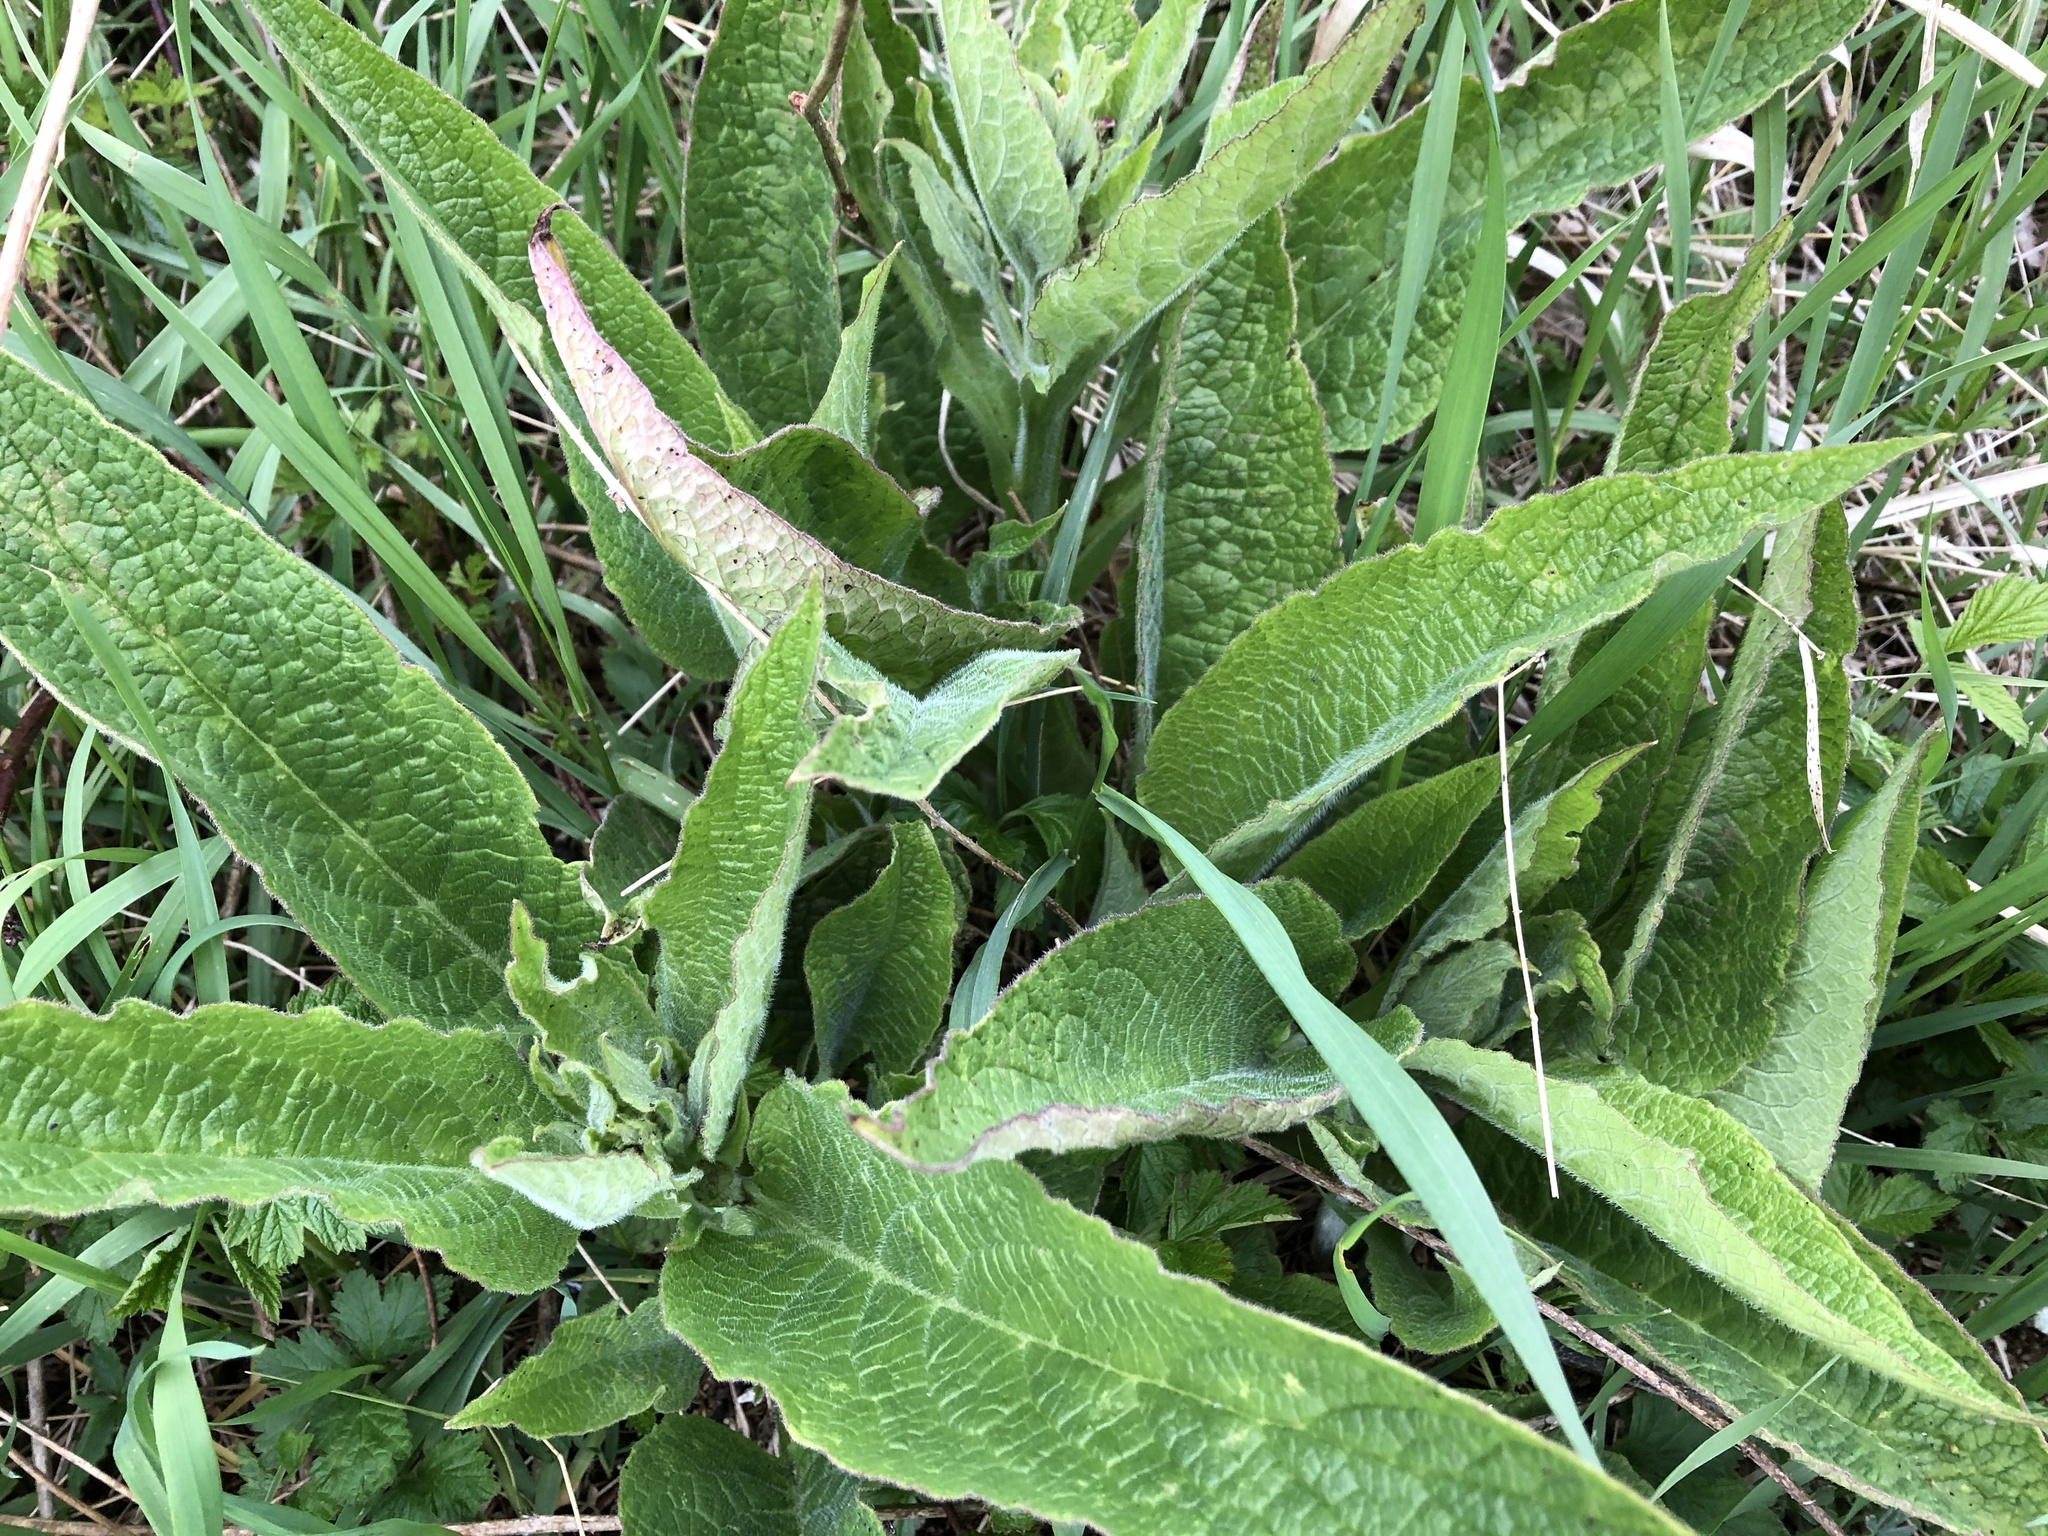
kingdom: Plantae
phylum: Tracheophyta
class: Magnoliopsida
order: Boraginales
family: Boraginaceae
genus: Symphytum
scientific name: Symphytum officinale
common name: Common comfrey
